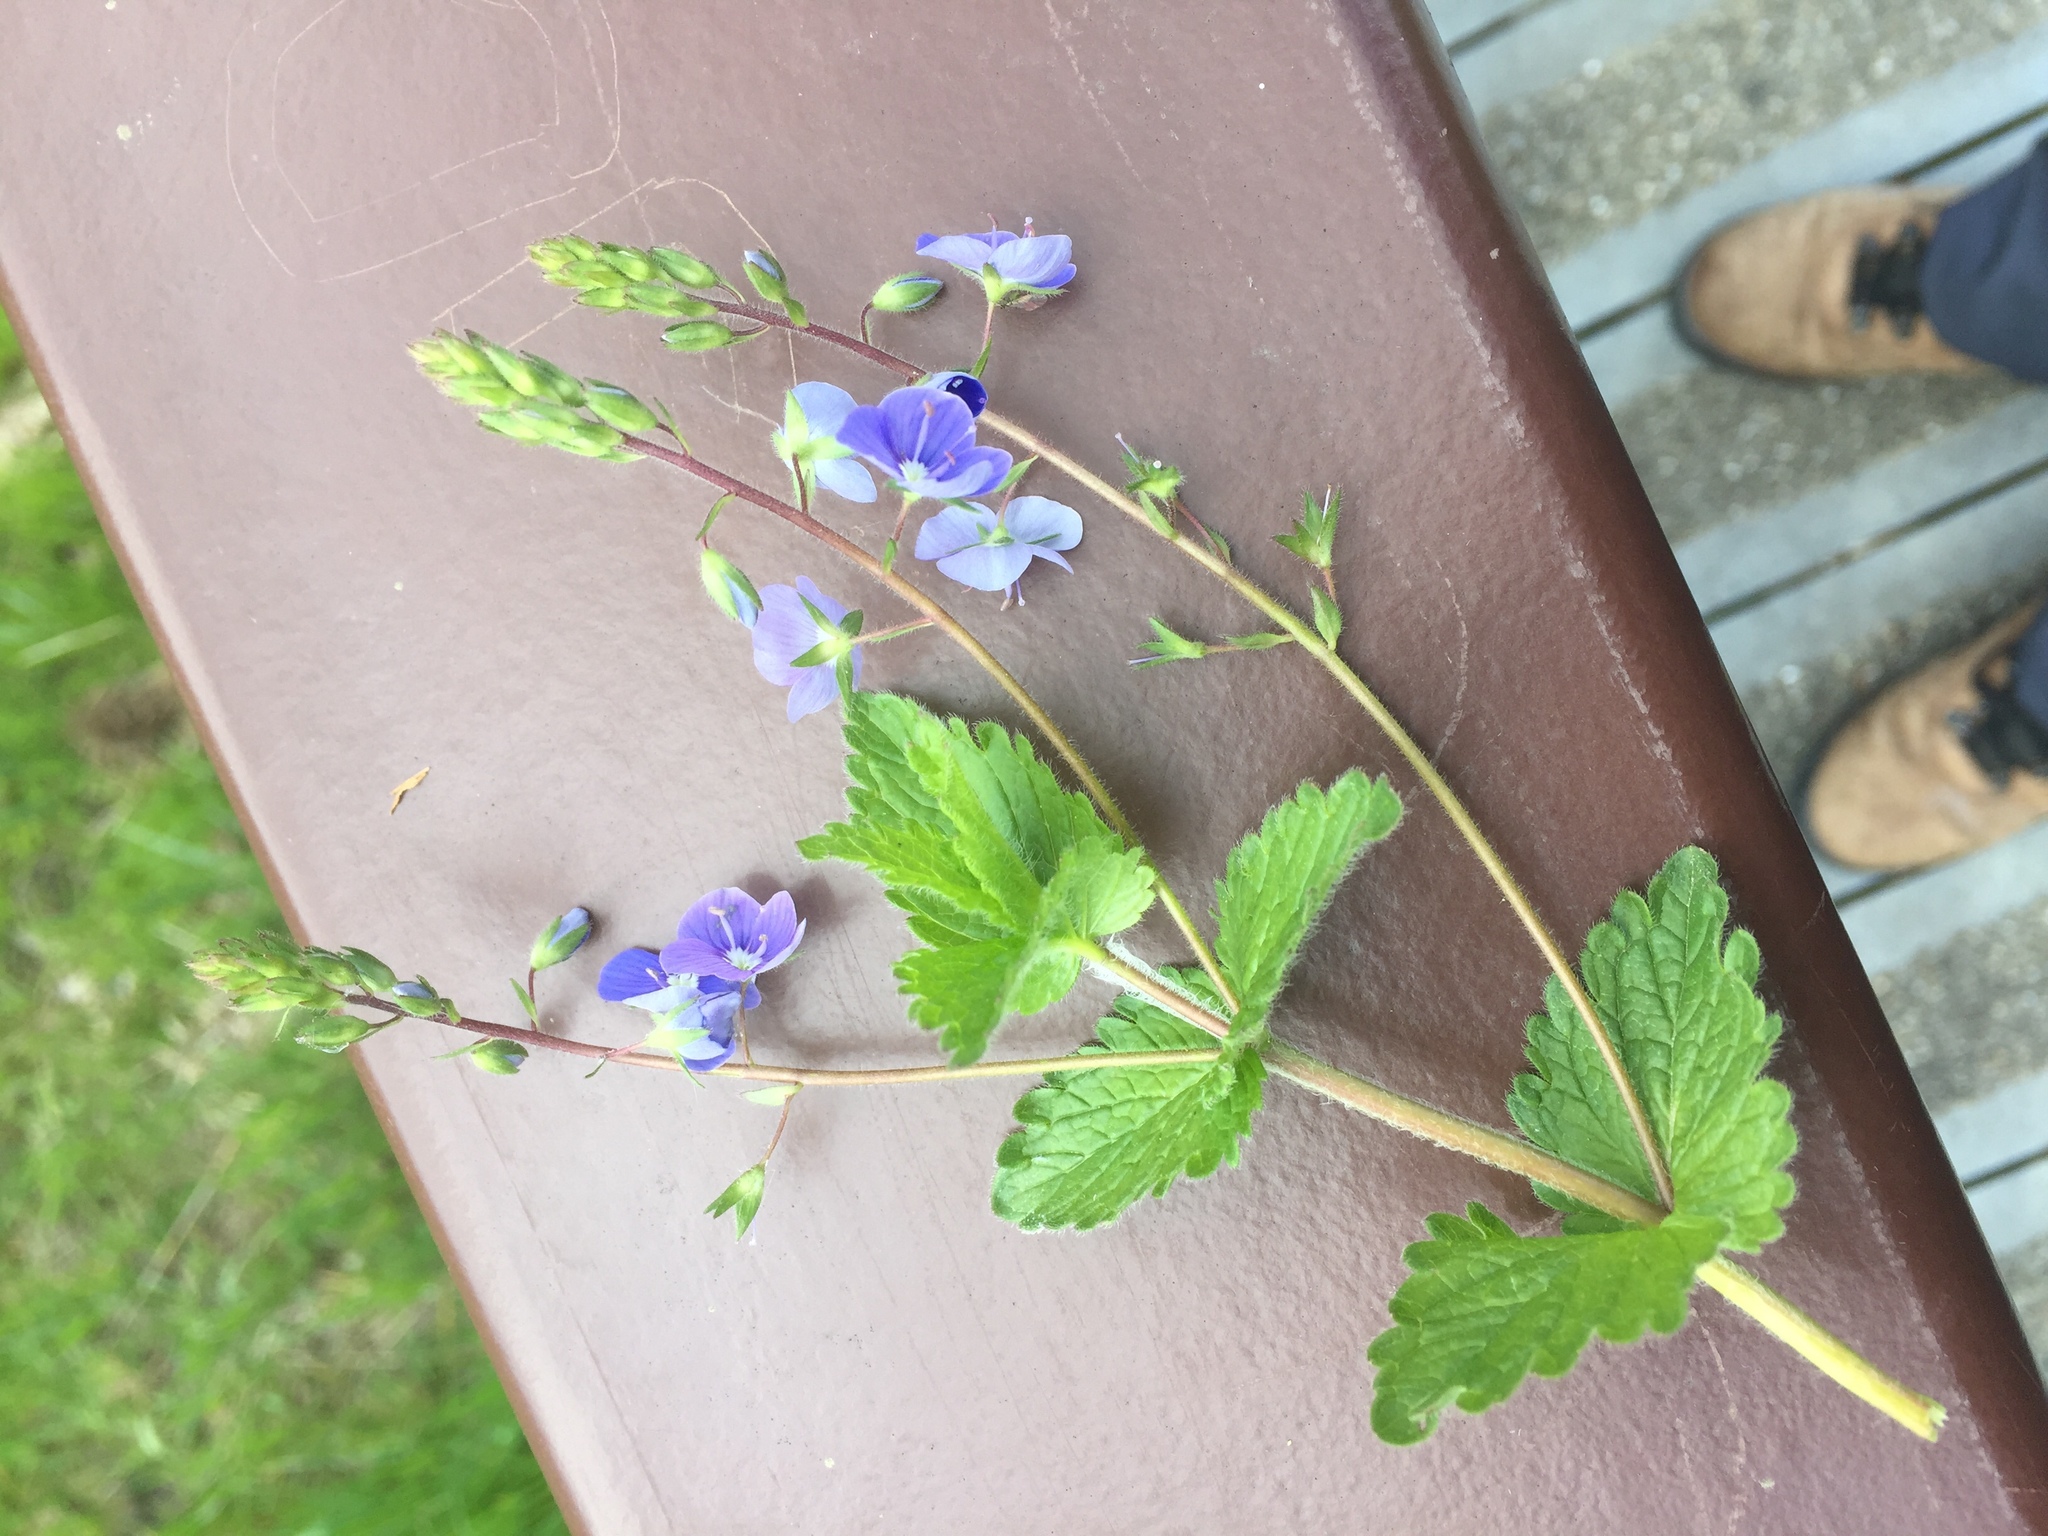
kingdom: Plantae
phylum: Tracheophyta
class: Magnoliopsida
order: Lamiales
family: Plantaginaceae
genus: Veronica
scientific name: Veronica chamaedrys
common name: Germander speedwell
